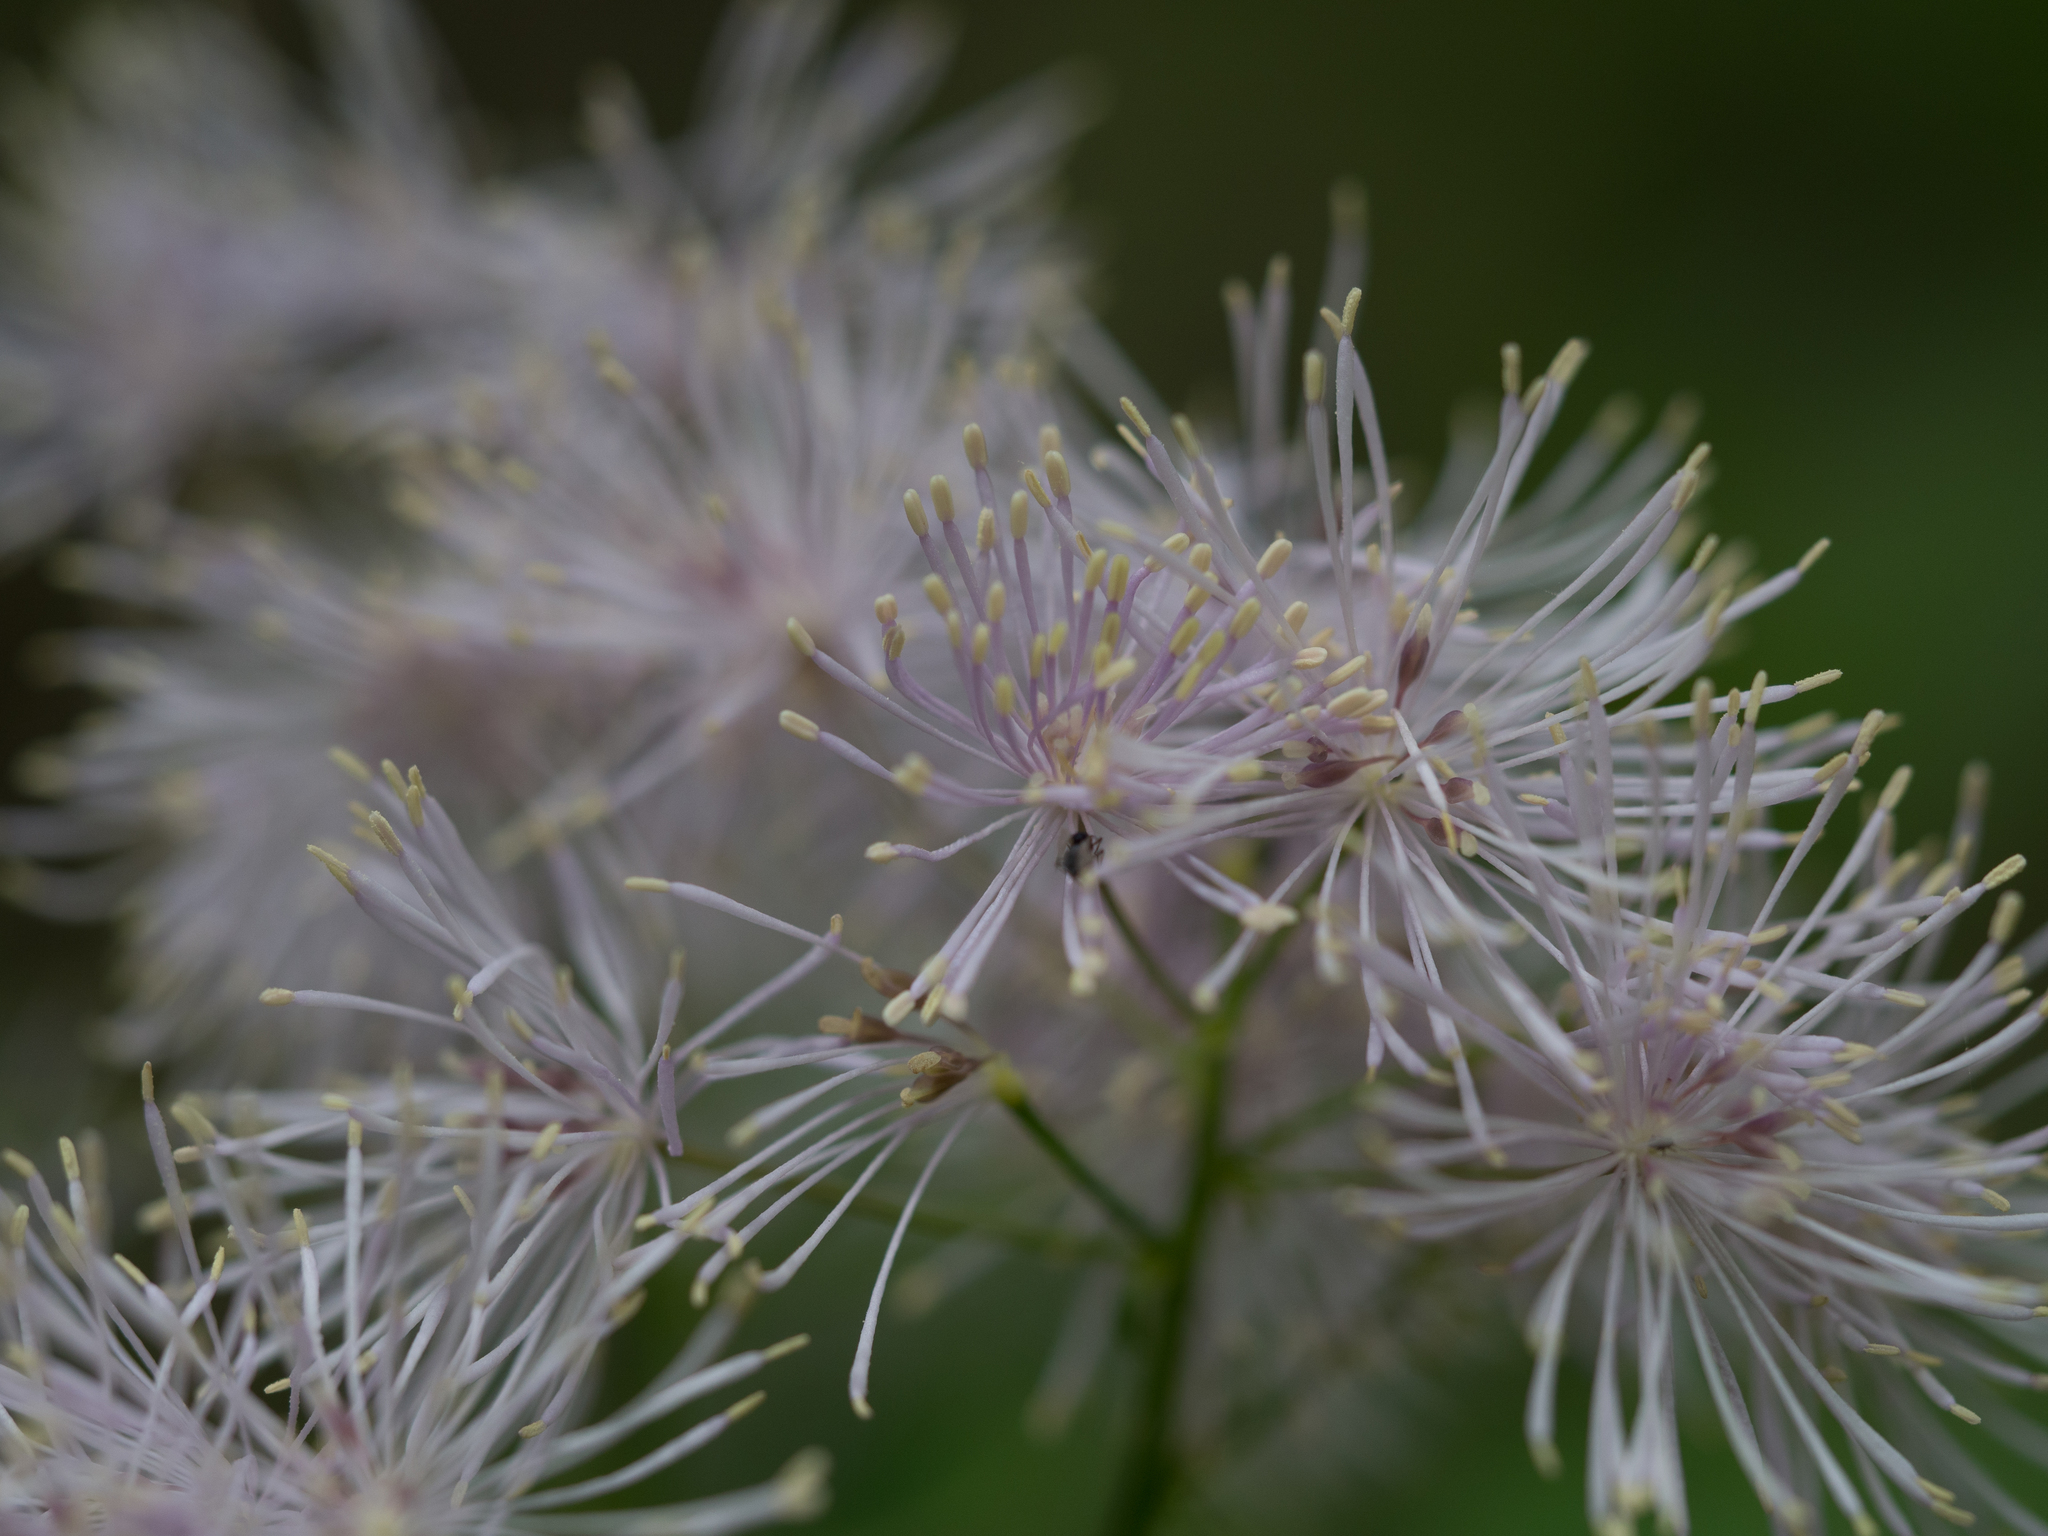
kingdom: Plantae
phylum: Tracheophyta
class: Magnoliopsida
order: Ranunculales
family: Ranunculaceae
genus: Thalictrum
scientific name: Thalictrum aquilegiifolium
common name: French meadow-rue
